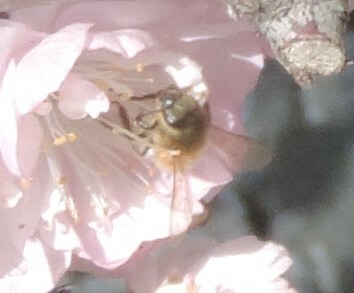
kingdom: Animalia
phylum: Arthropoda
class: Insecta
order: Hymenoptera
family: Apidae
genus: Apis
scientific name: Apis mellifera
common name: Honey bee
